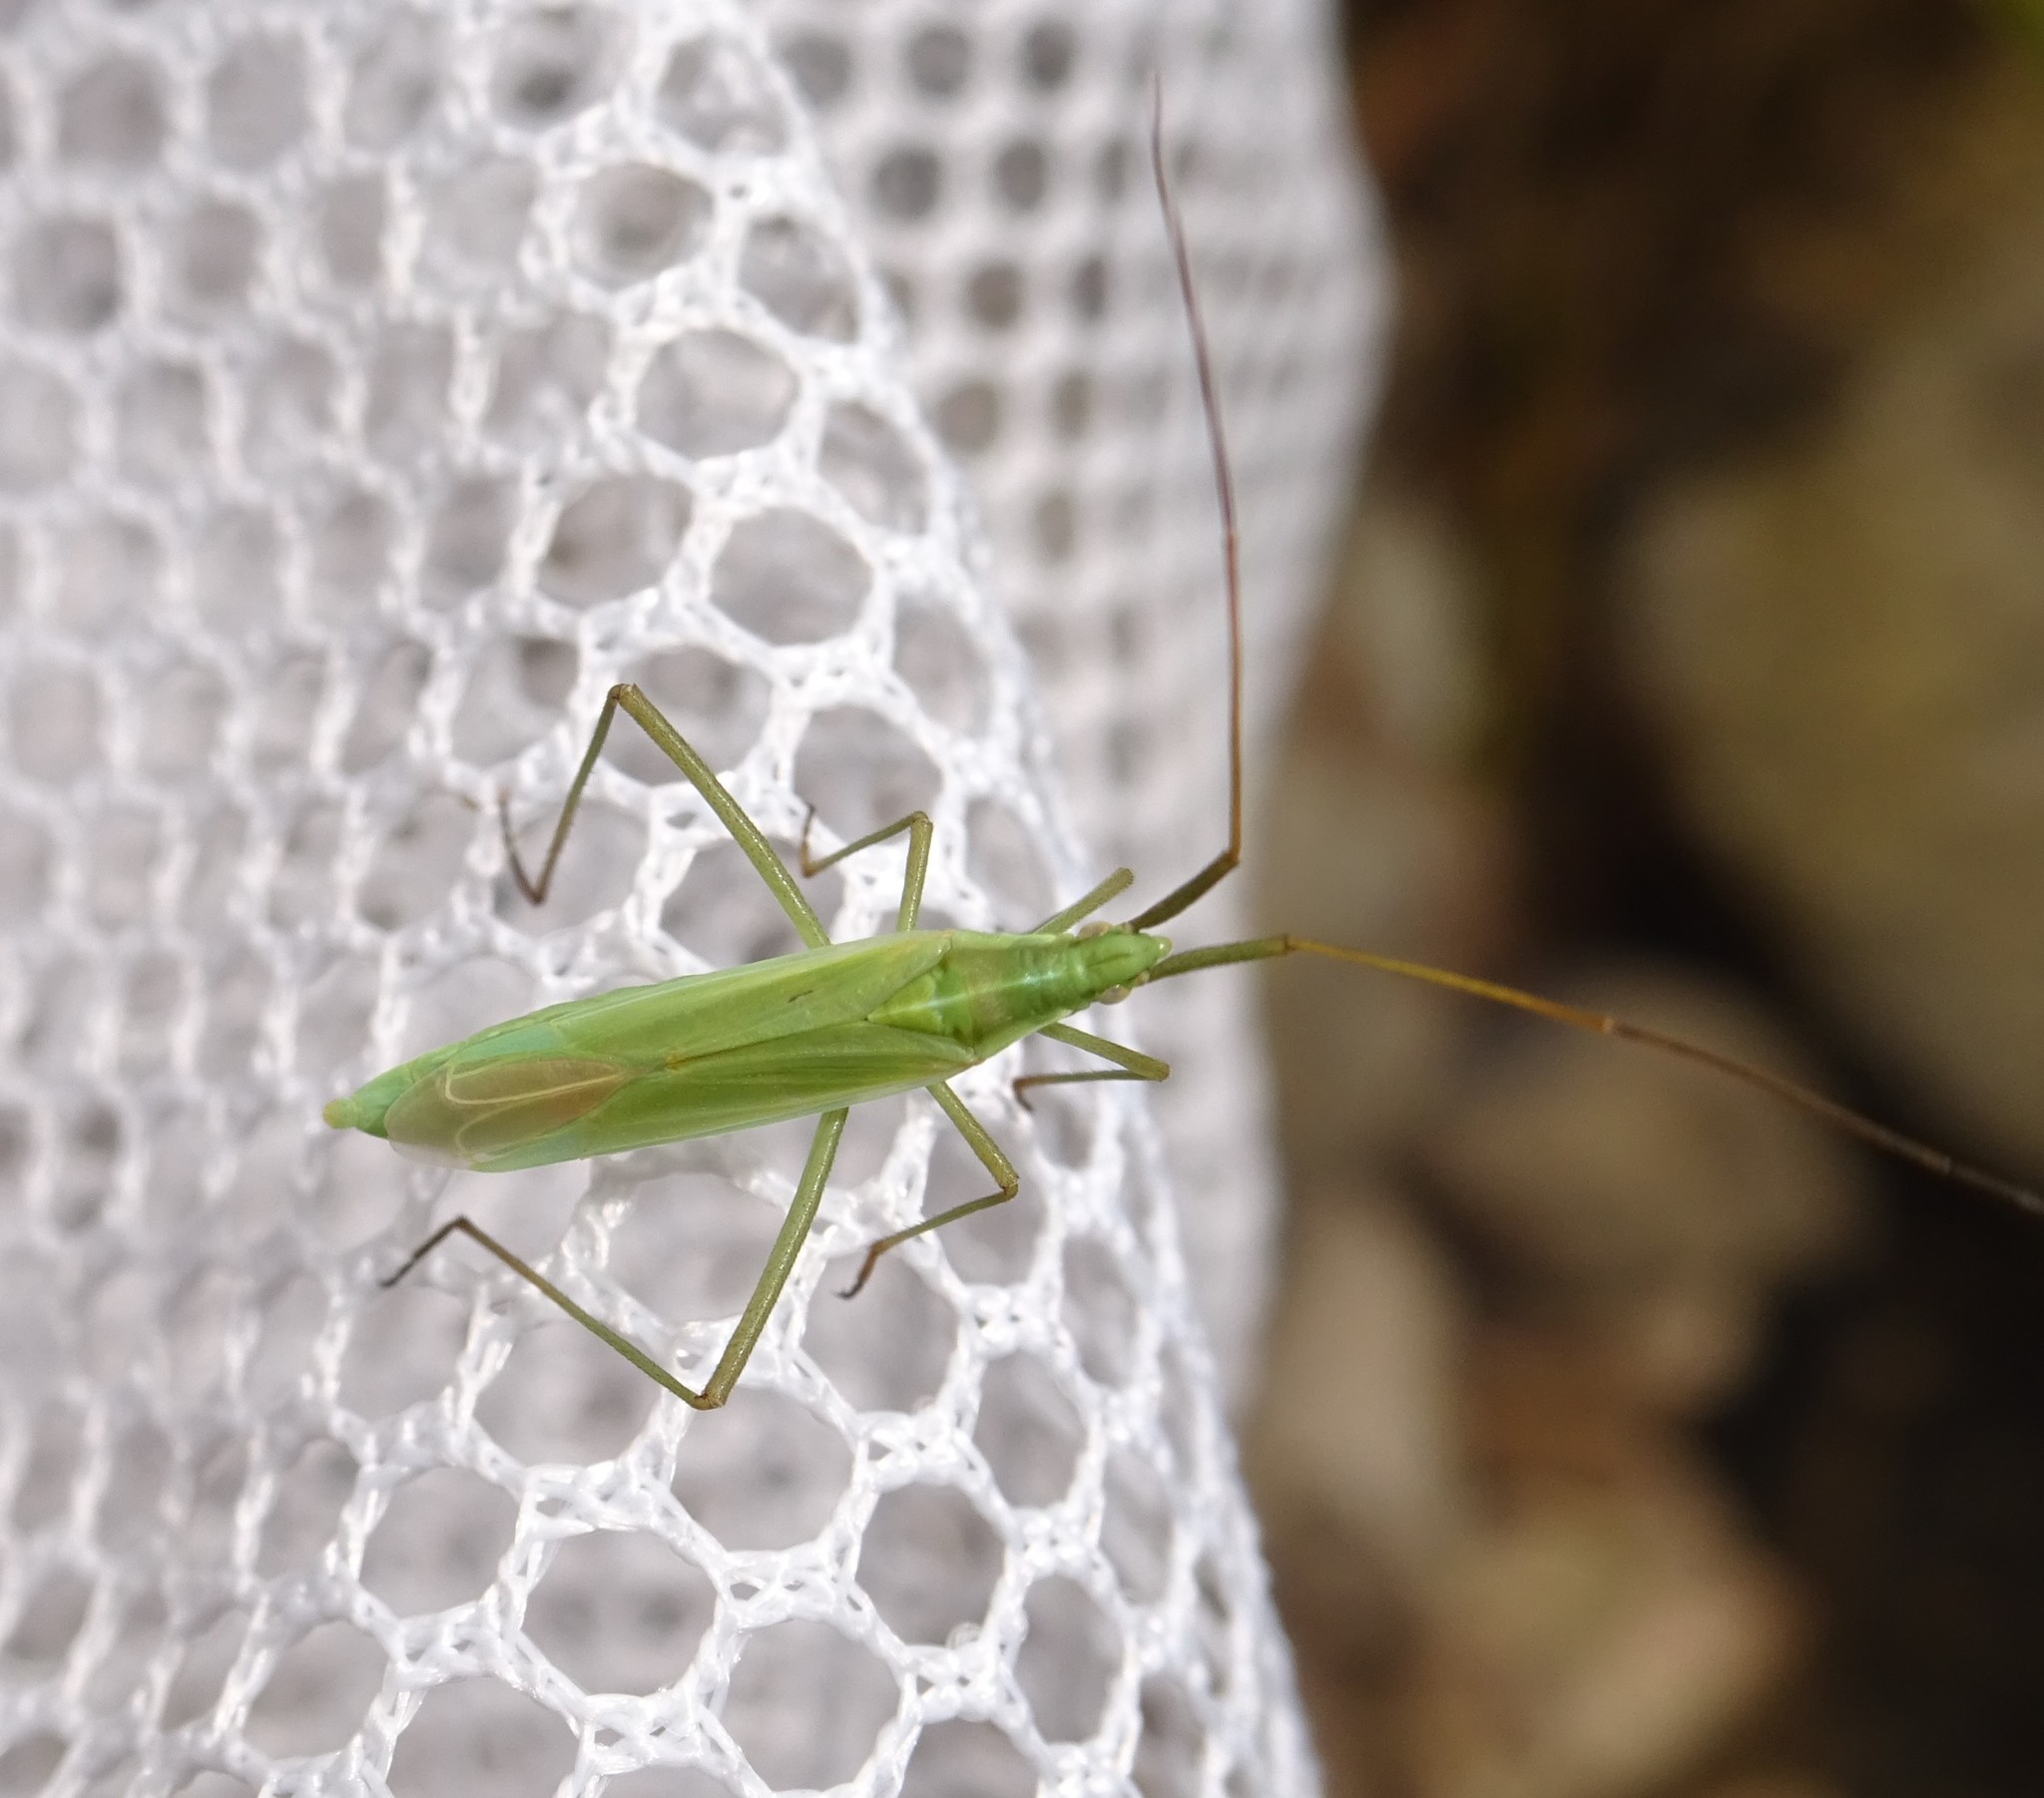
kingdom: Animalia
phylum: Arthropoda
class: Insecta
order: Hemiptera
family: Miridae
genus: Megaloceroea
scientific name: Megaloceroea recticornis
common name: Plant bug
